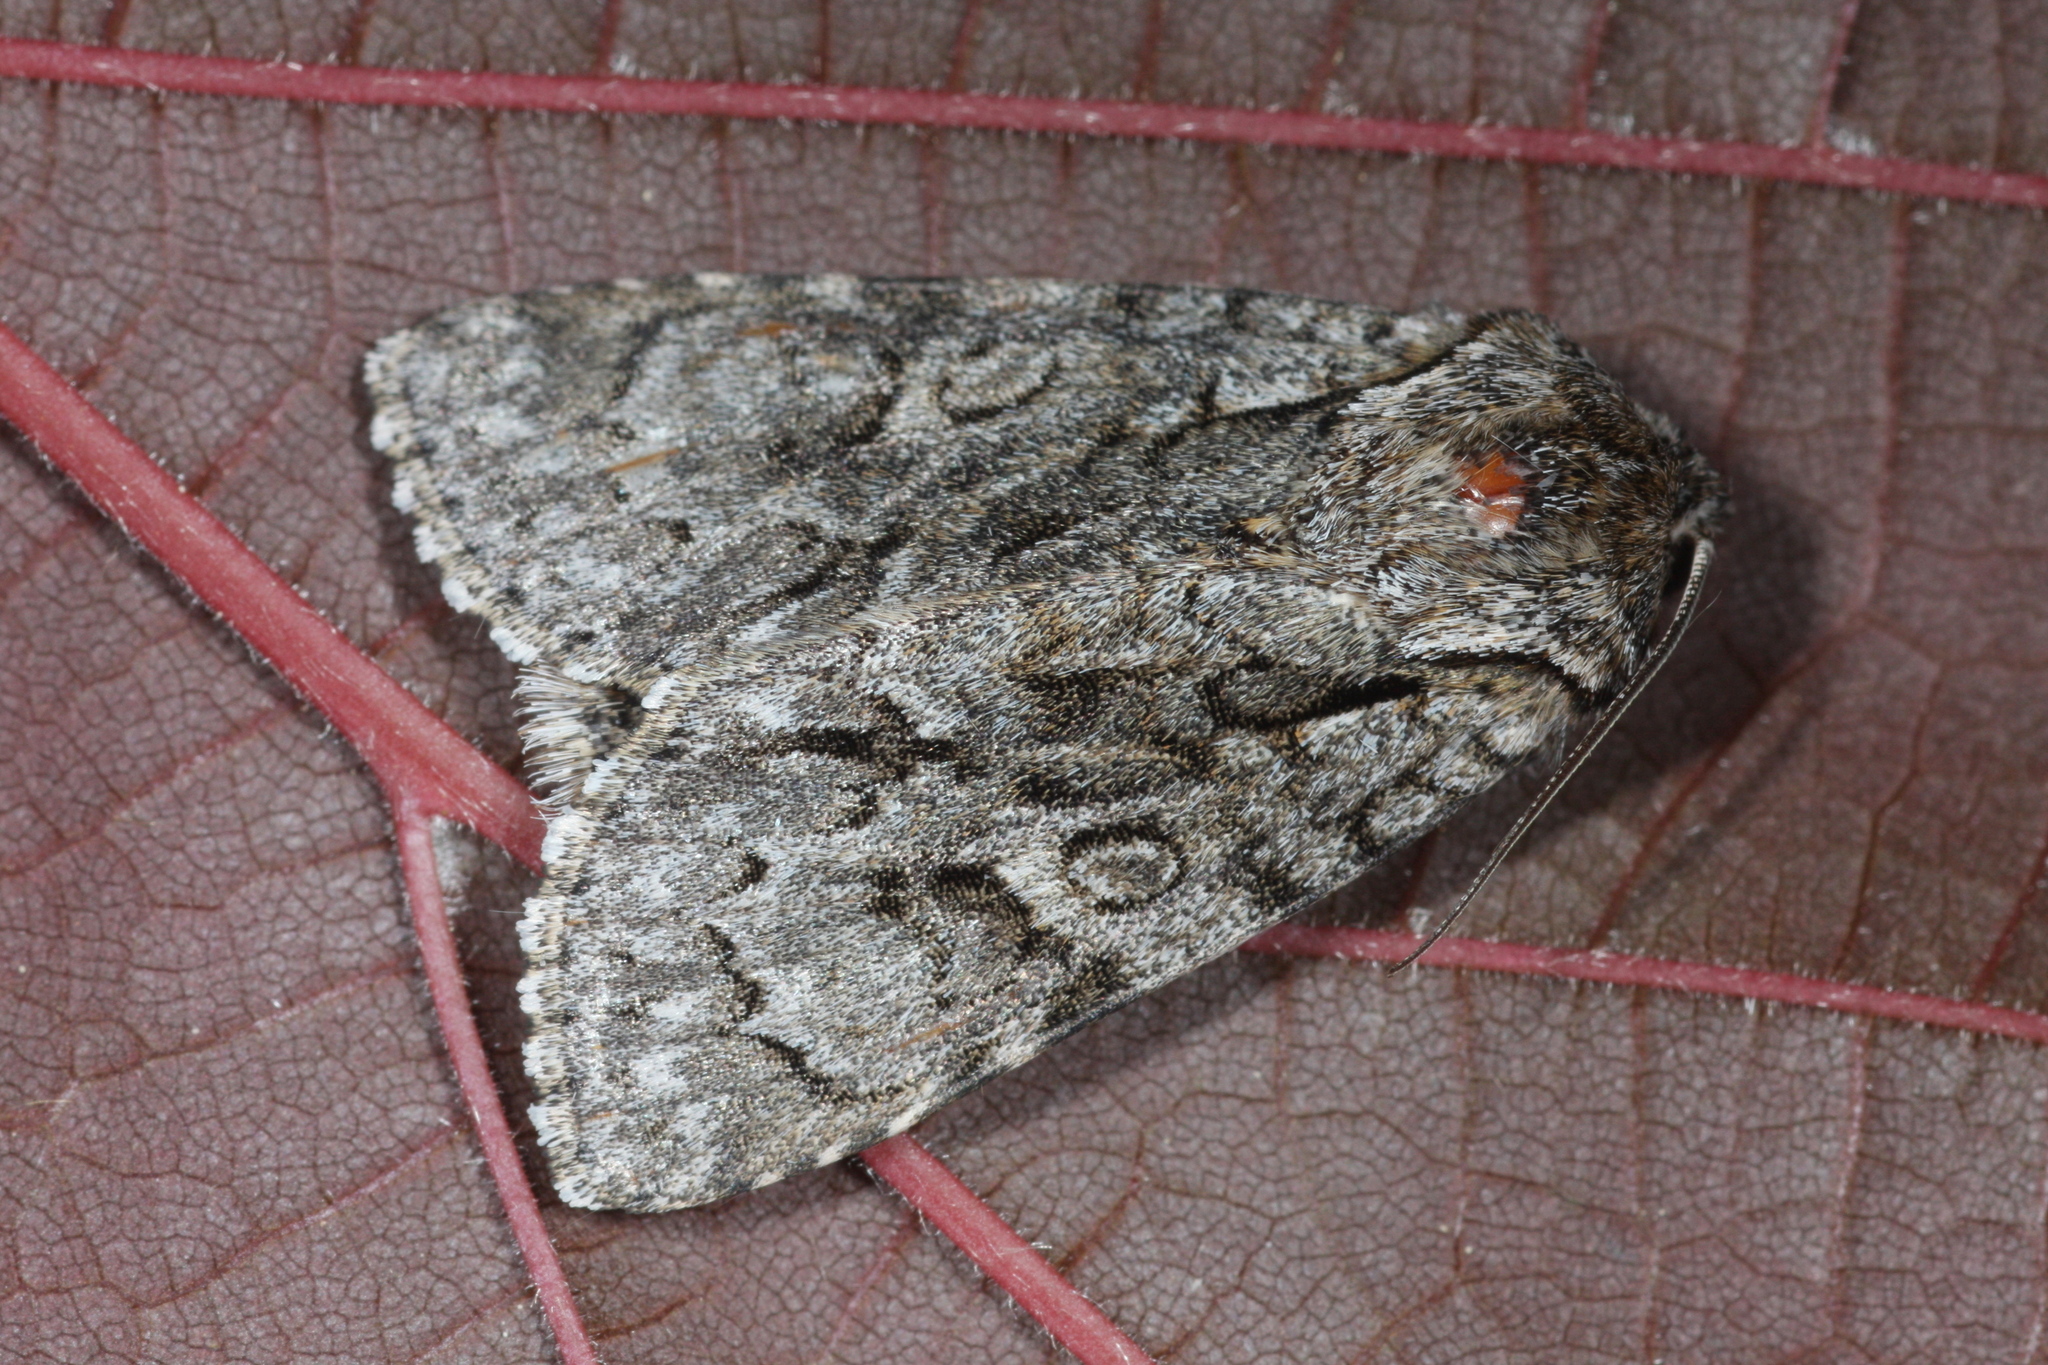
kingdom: Animalia
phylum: Arthropoda
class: Insecta
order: Lepidoptera
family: Noctuidae
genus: Acronicta
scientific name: Acronicta auricoma
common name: Scarce dagger
